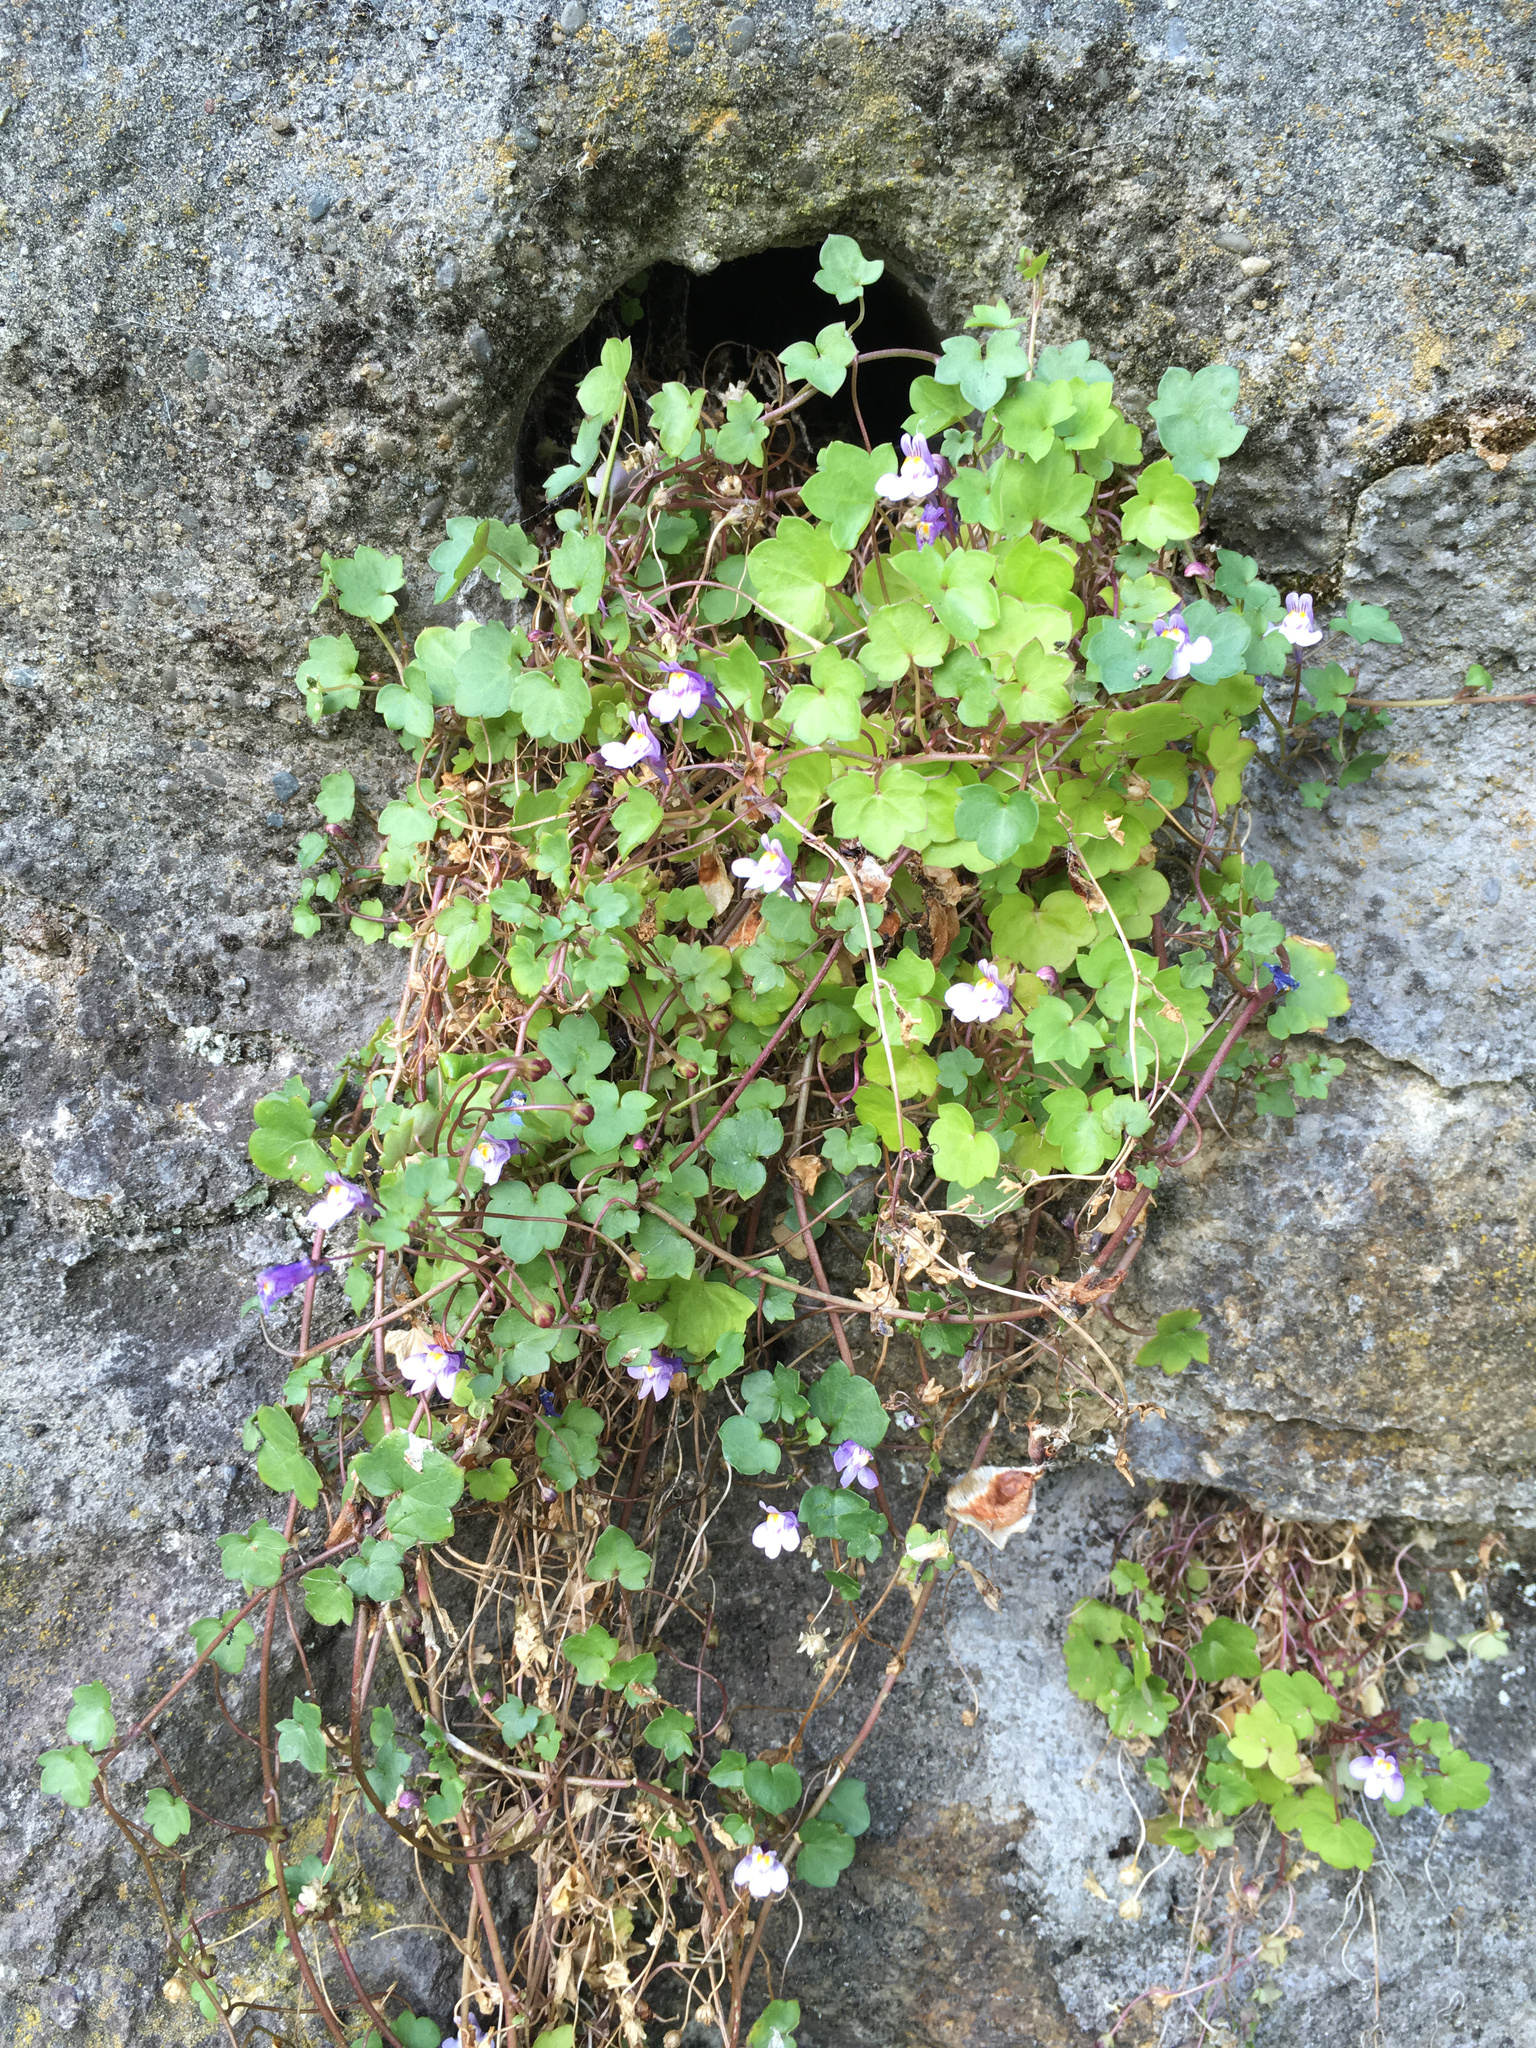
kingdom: Plantae
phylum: Tracheophyta
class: Magnoliopsida
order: Lamiales
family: Plantaginaceae
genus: Cymbalaria
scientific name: Cymbalaria muralis
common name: Ivy-leaved toadflax
